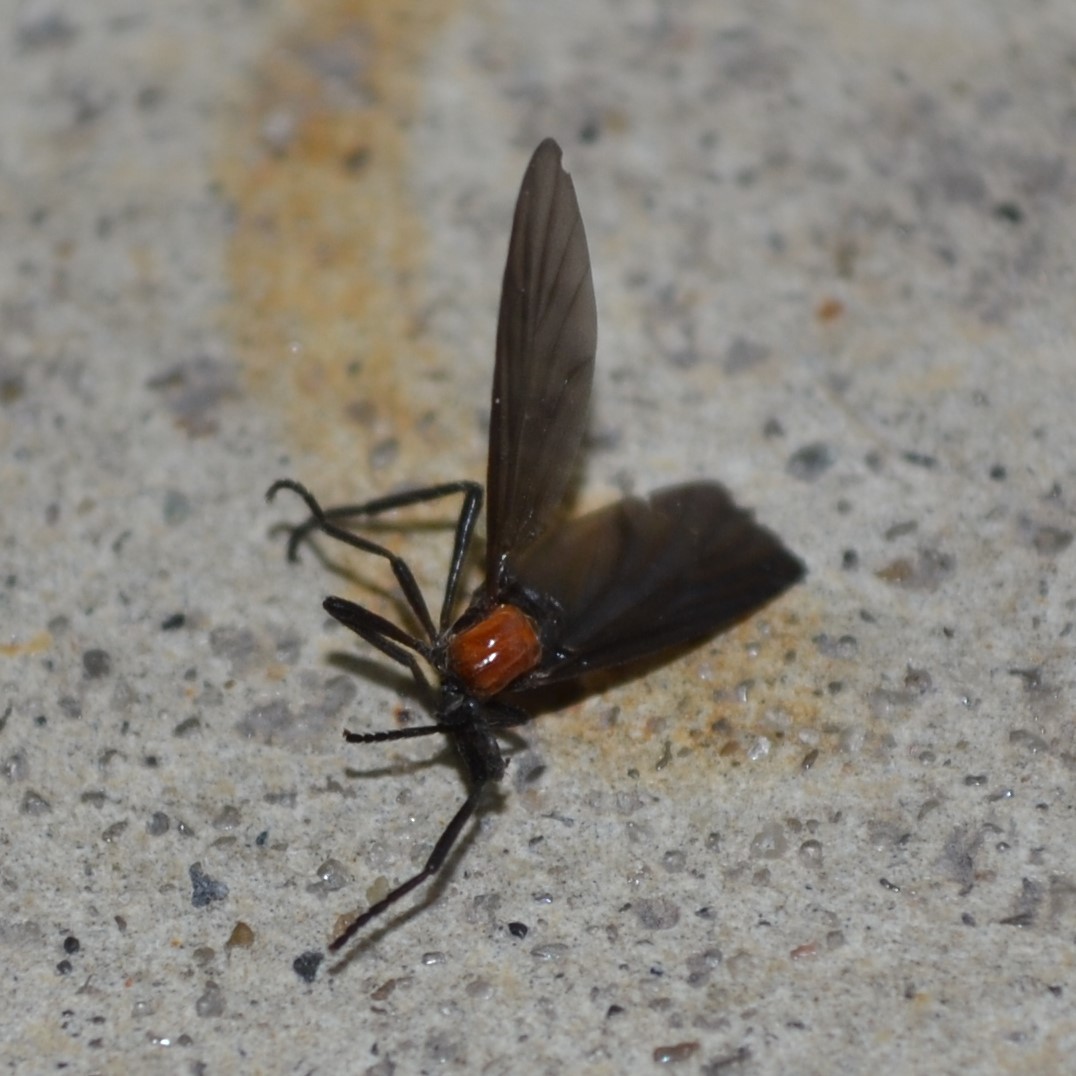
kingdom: Animalia
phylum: Arthropoda
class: Insecta
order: Diptera
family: Bibionidae
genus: Plecia
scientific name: Plecia nearctica
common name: March fly
